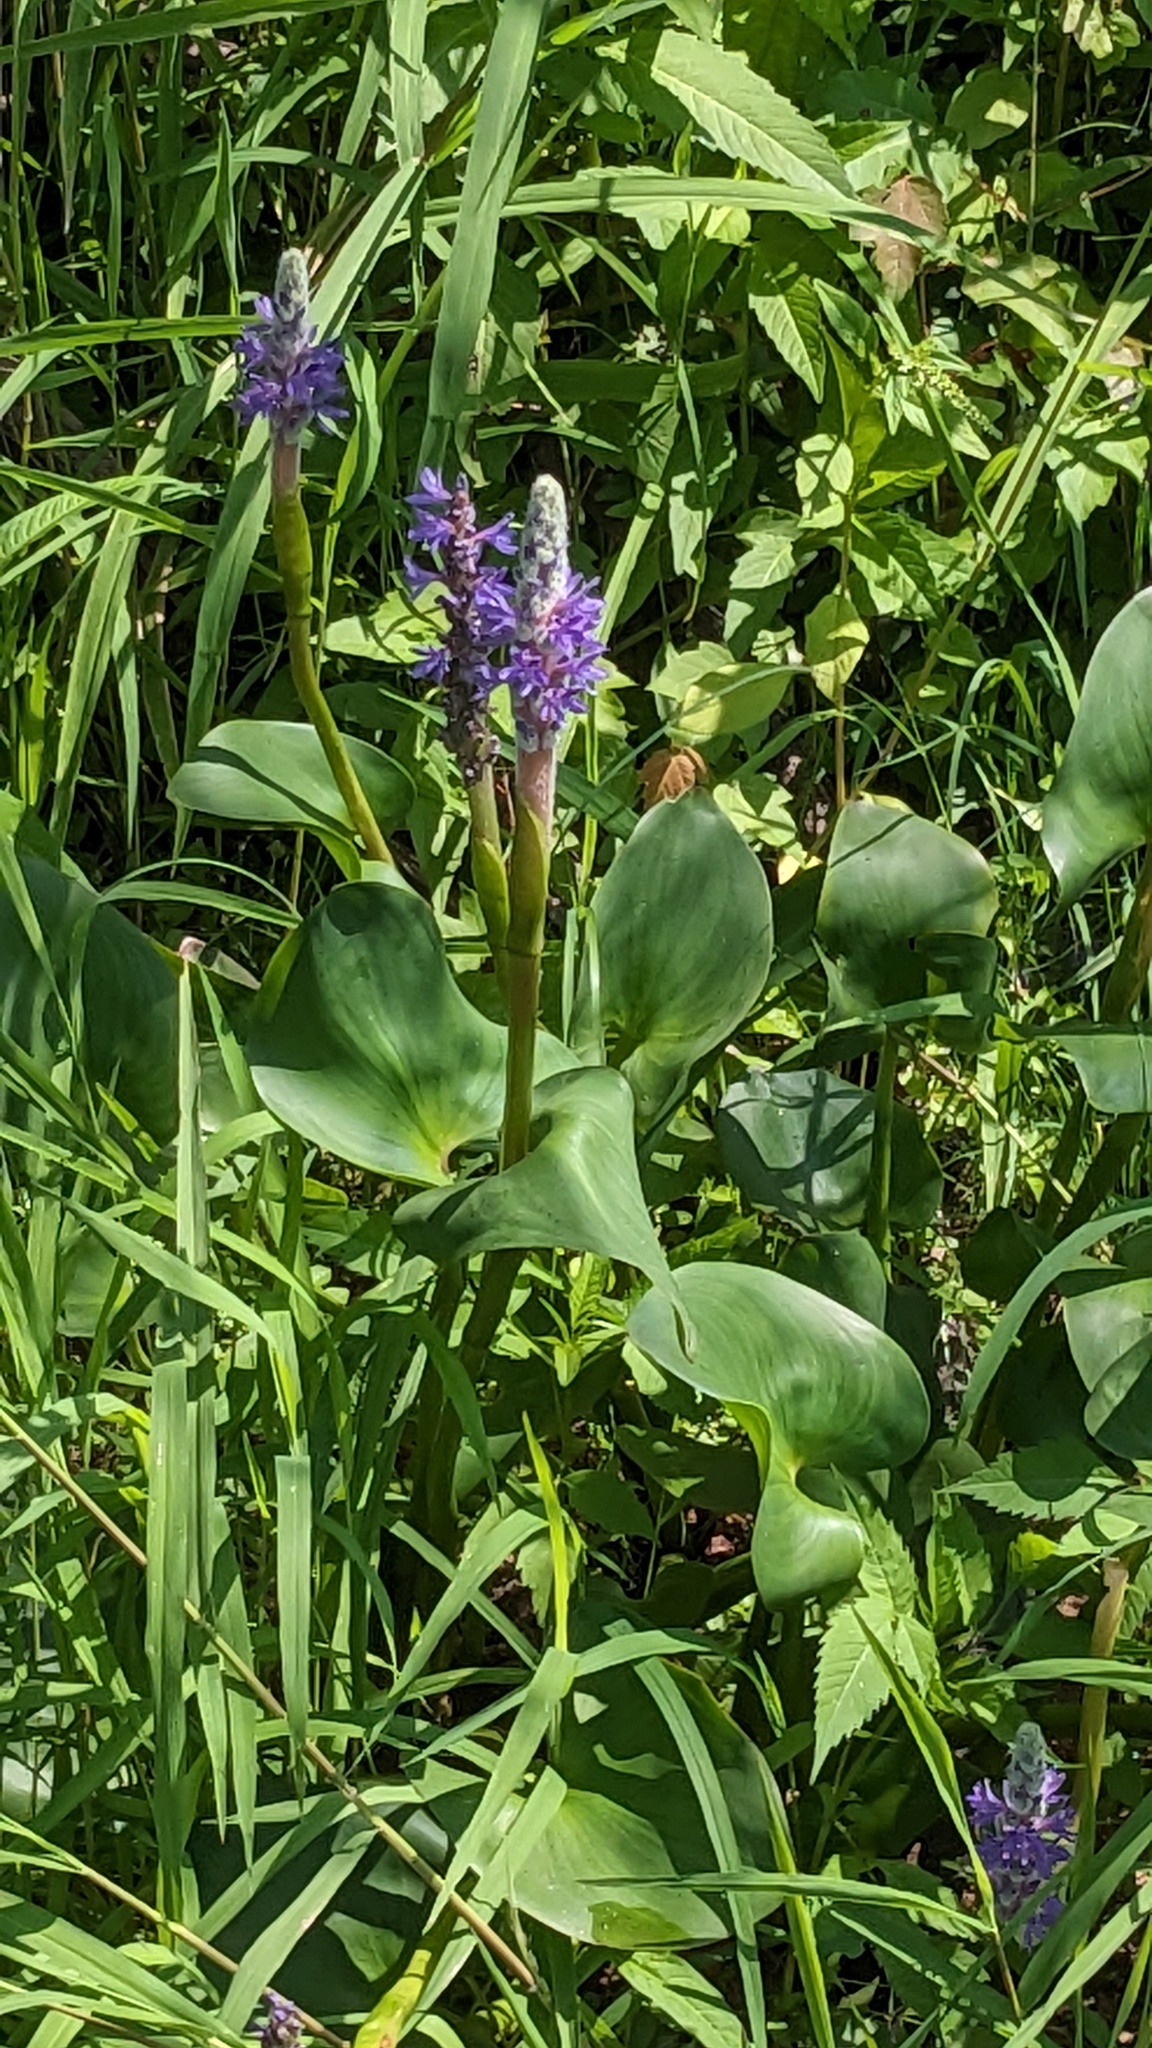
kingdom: Plantae
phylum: Tracheophyta
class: Liliopsida
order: Commelinales
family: Pontederiaceae
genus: Pontederia
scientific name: Pontederia cordata
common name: Pickerelweed
